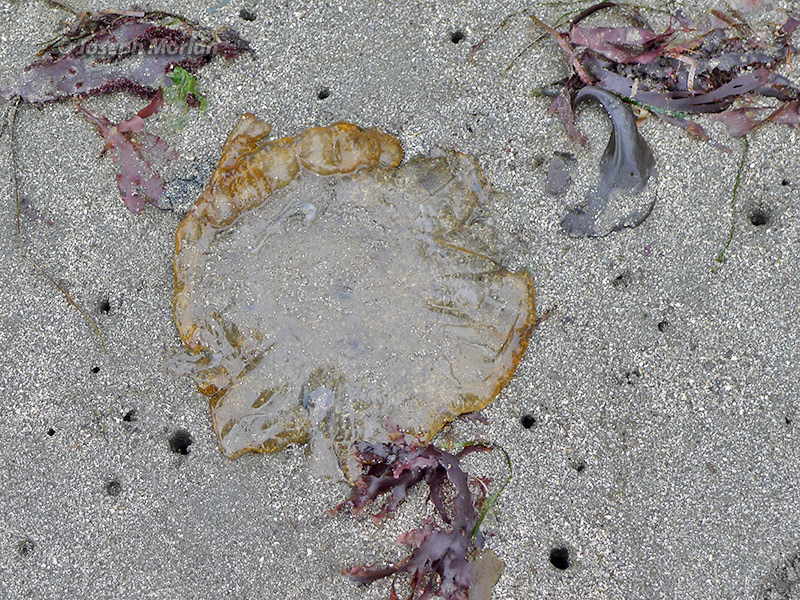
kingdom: Animalia
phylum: Cnidaria
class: Scyphozoa
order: Semaeostomeae
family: Pelagiidae
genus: Chrysaora
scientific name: Chrysaora fuscescens
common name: Sea nettle
